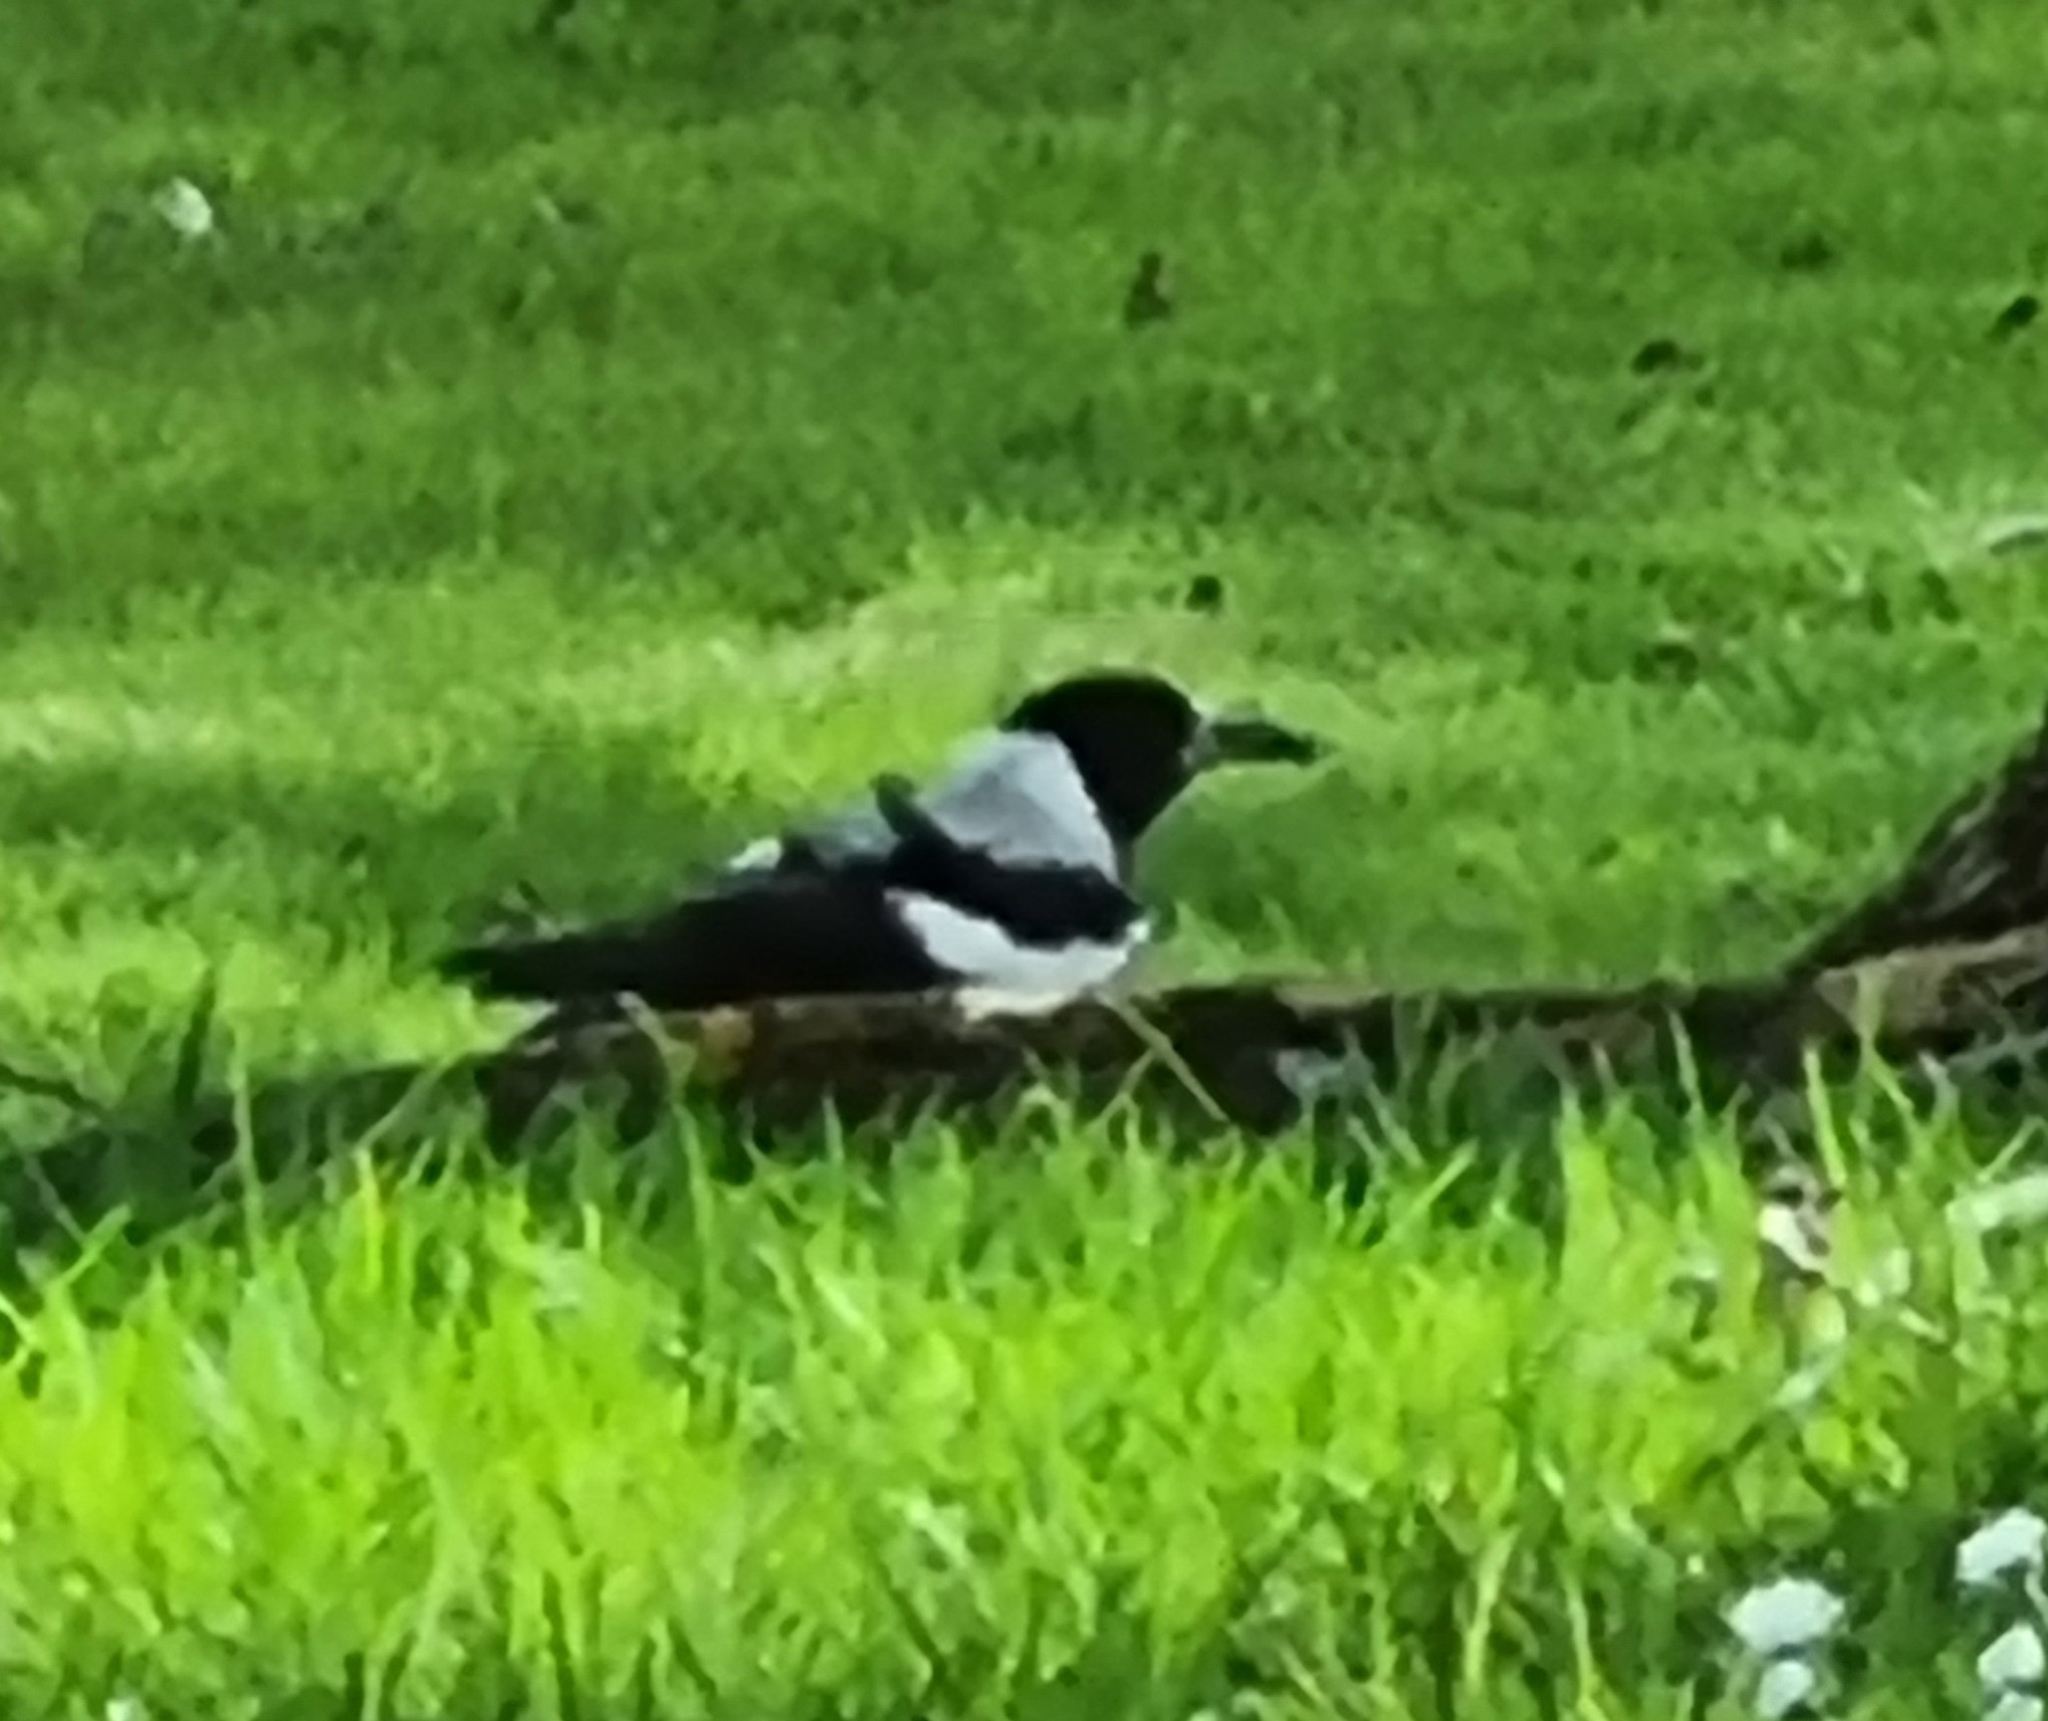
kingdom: Animalia
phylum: Chordata
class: Aves
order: Passeriformes
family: Cracticidae
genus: Gymnorhina
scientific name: Gymnorhina tibicen
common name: Australian magpie
